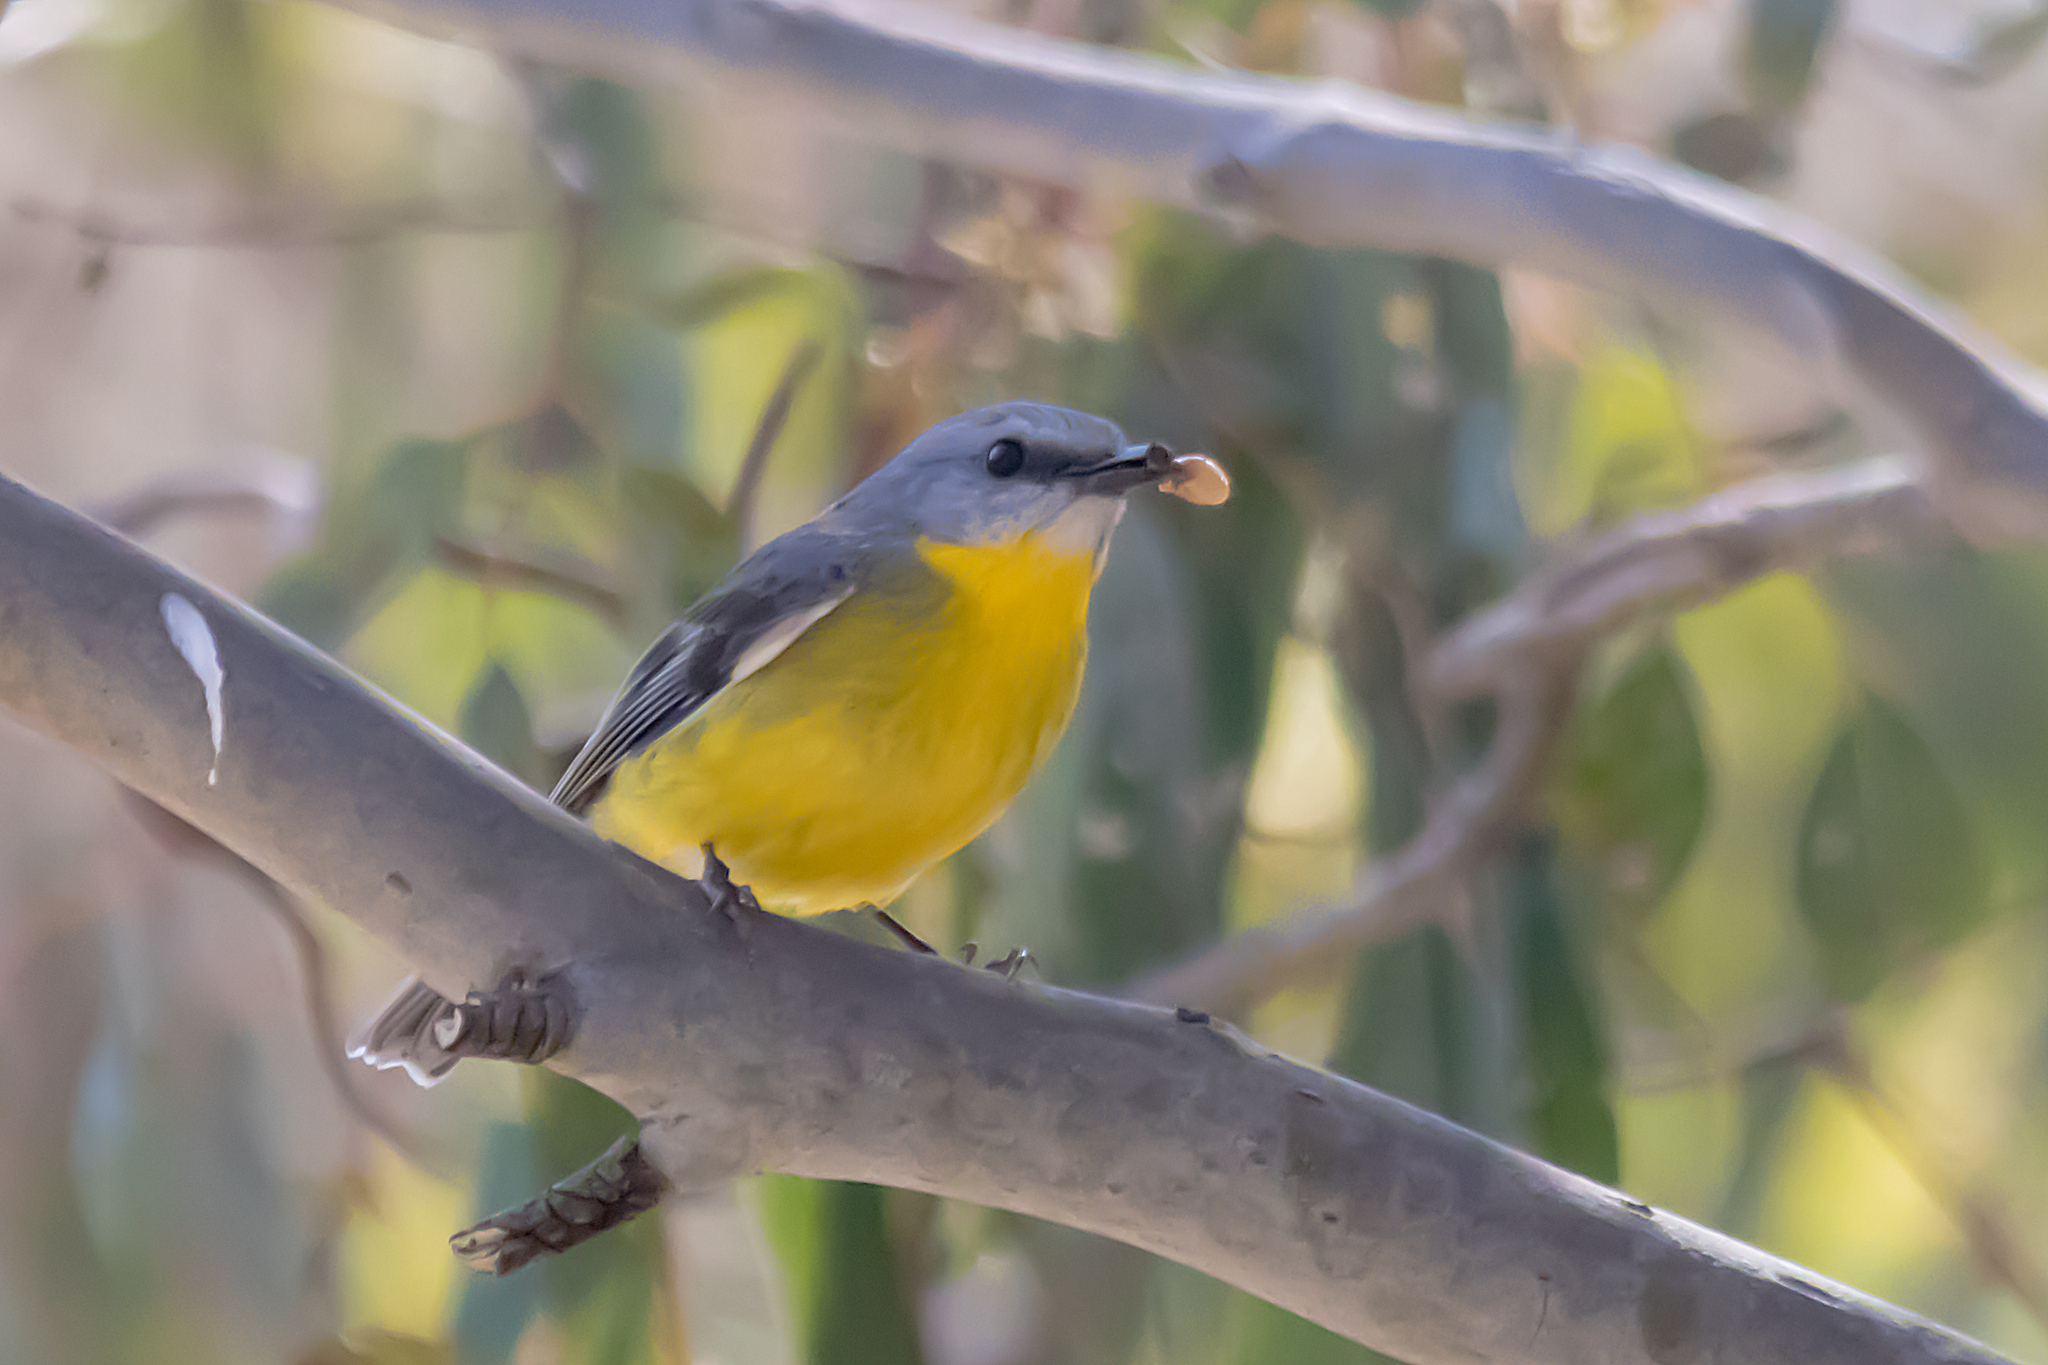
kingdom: Animalia
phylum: Chordata
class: Aves
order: Passeriformes
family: Petroicidae
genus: Eopsaltria
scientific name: Eopsaltria australis
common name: Eastern yellow robin
